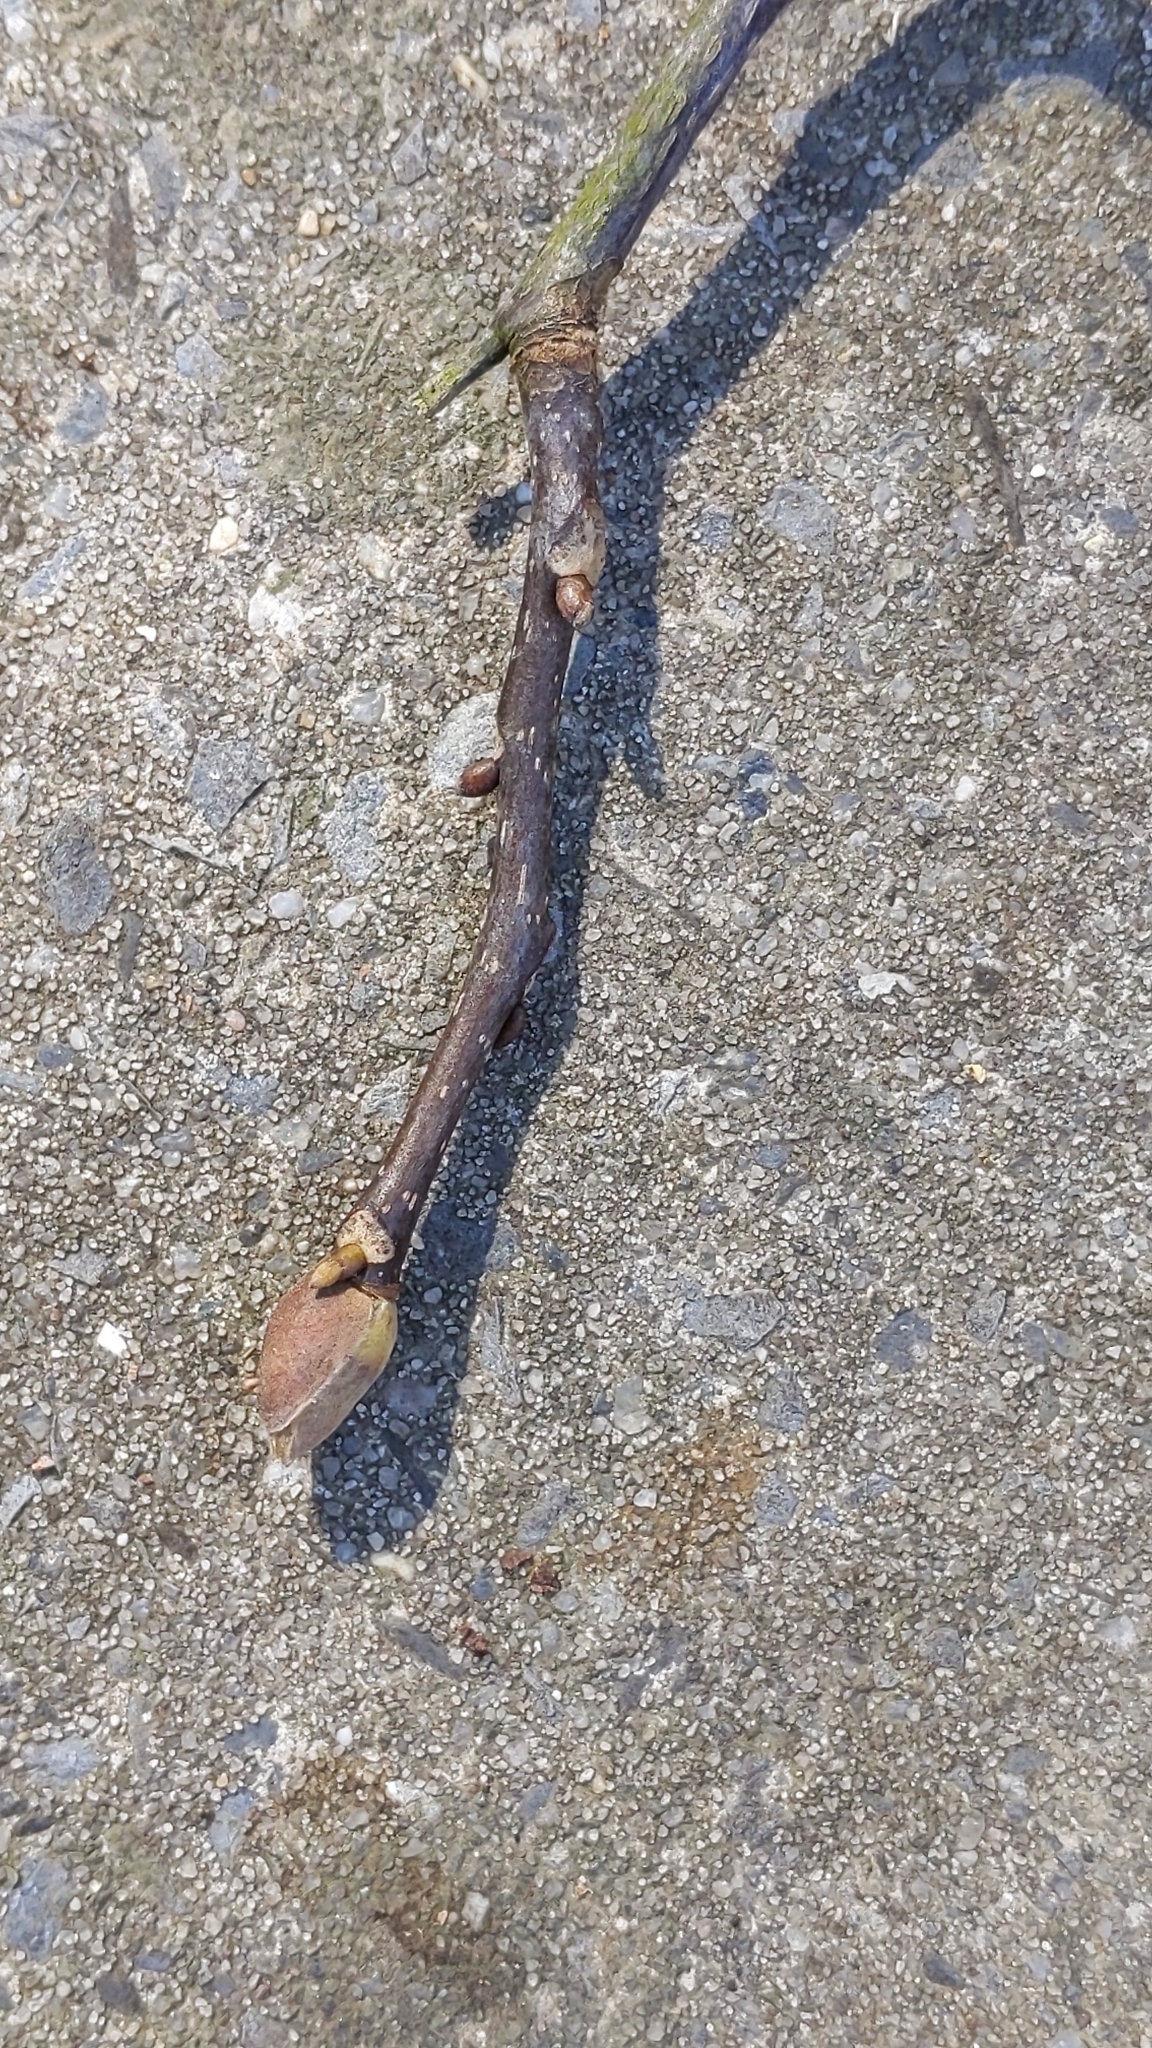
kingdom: Plantae
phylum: Tracheophyta
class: Magnoliopsida
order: Fagales
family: Juglandaceae
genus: Carya
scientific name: Carya glabra
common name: Pignut hickory
